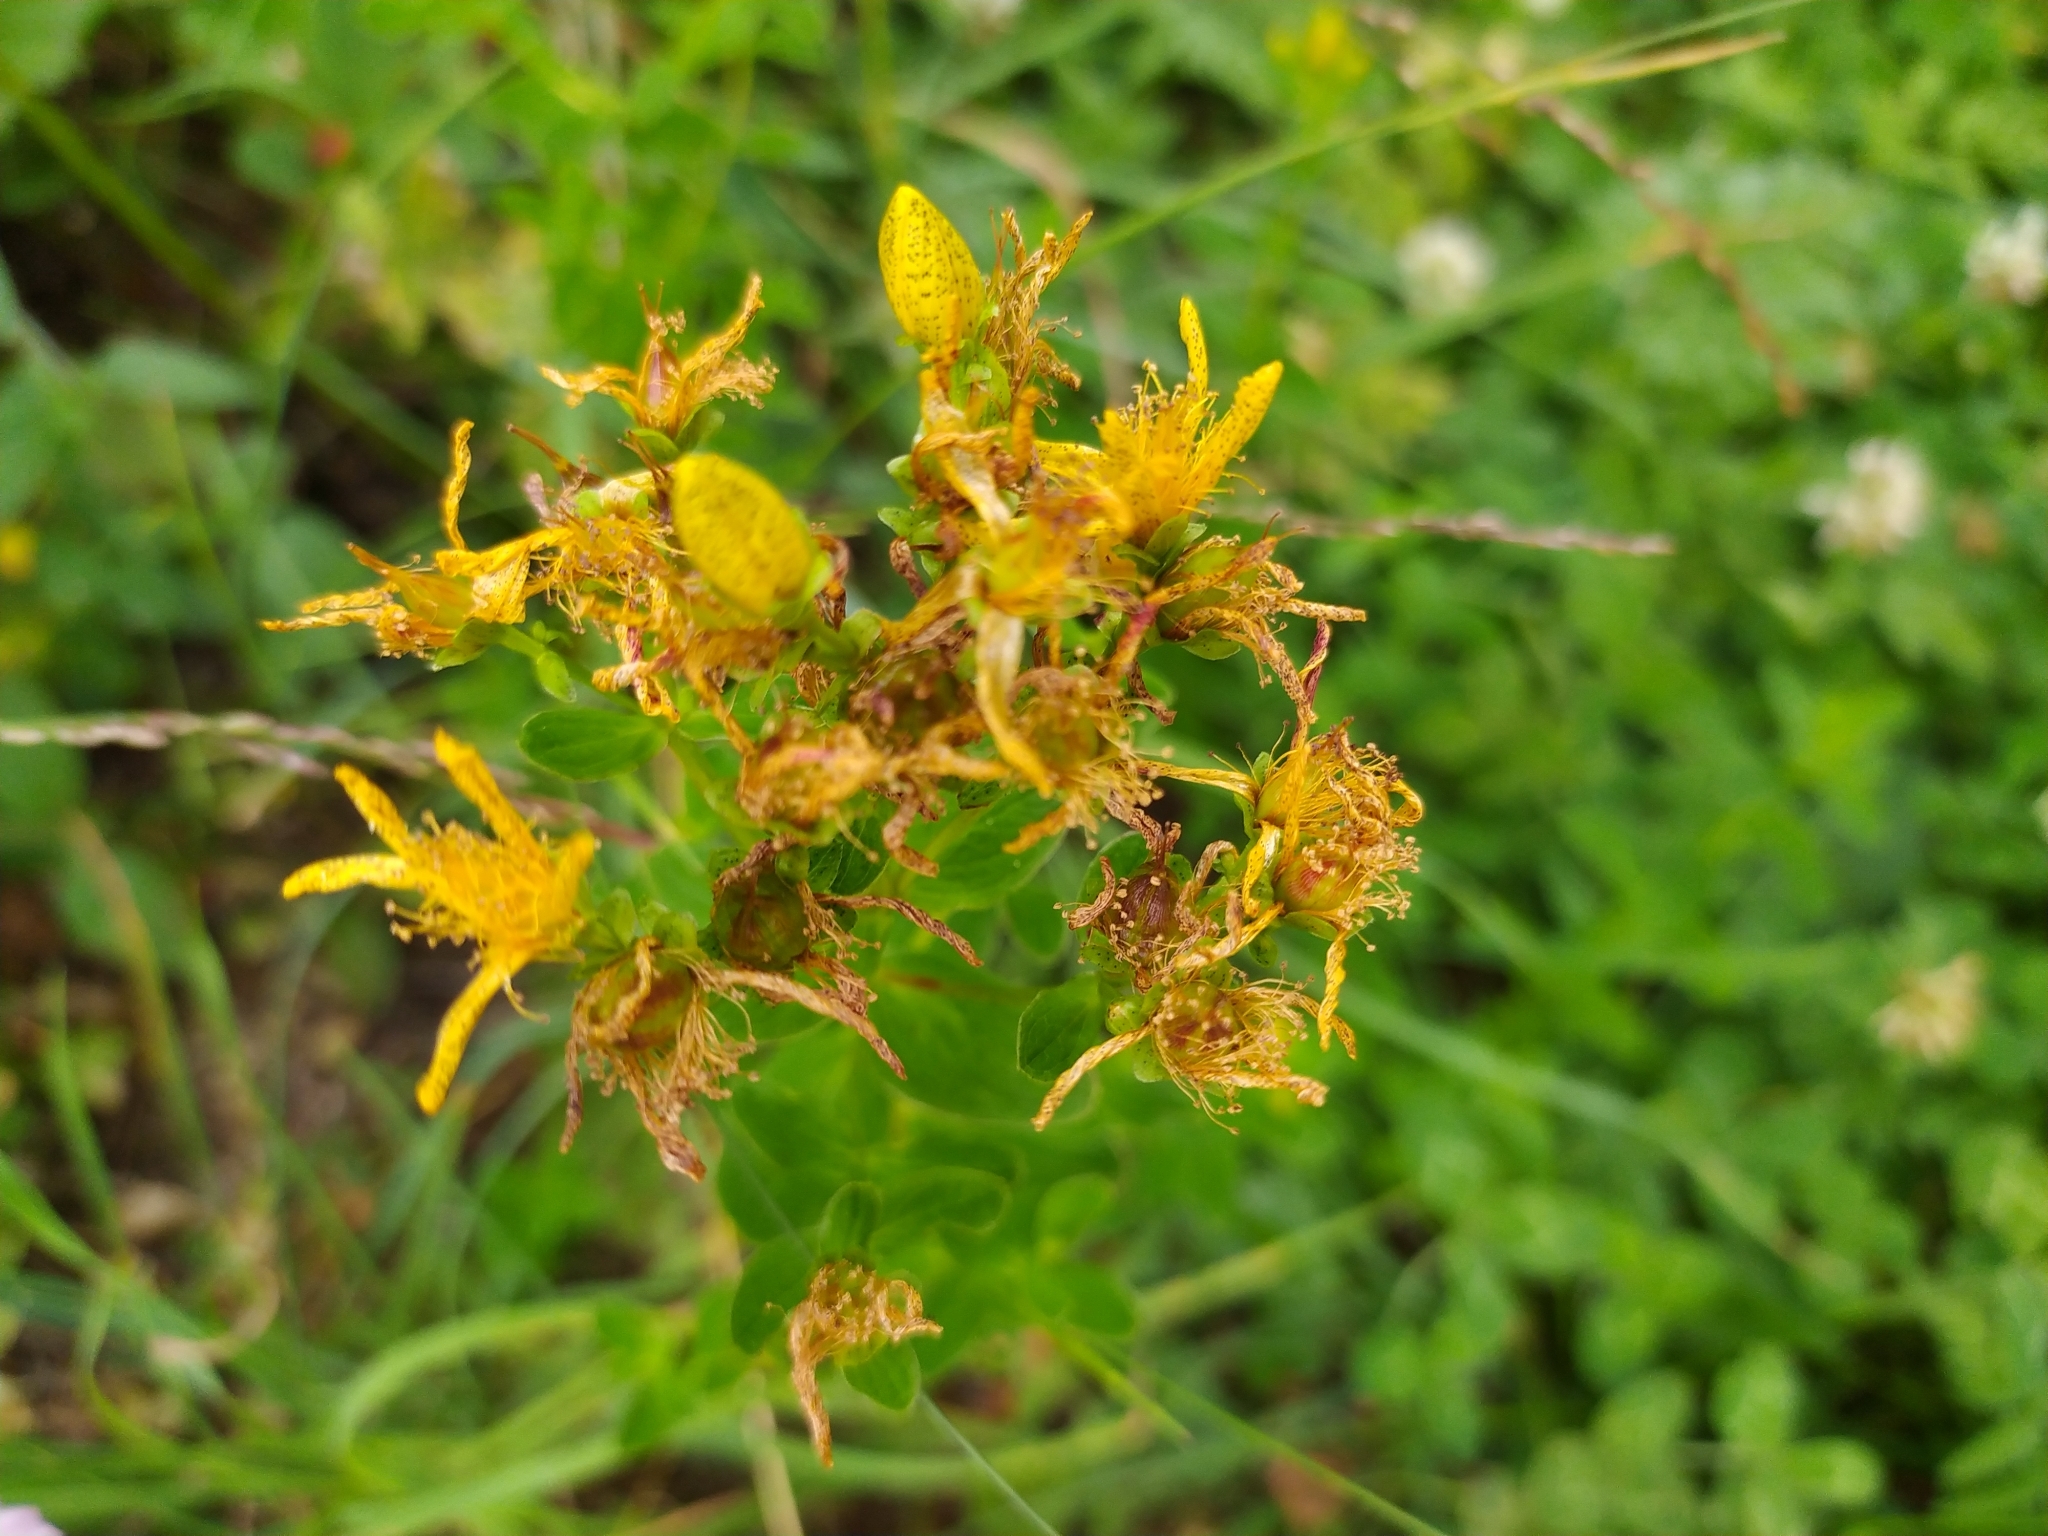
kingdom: Plantae
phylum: Tracheophyta
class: Magnoliopsida
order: Malpighiales
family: Hypericaceae
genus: Hypericum
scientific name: Hypericum maculatum
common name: Imperforate st. john's-wort
